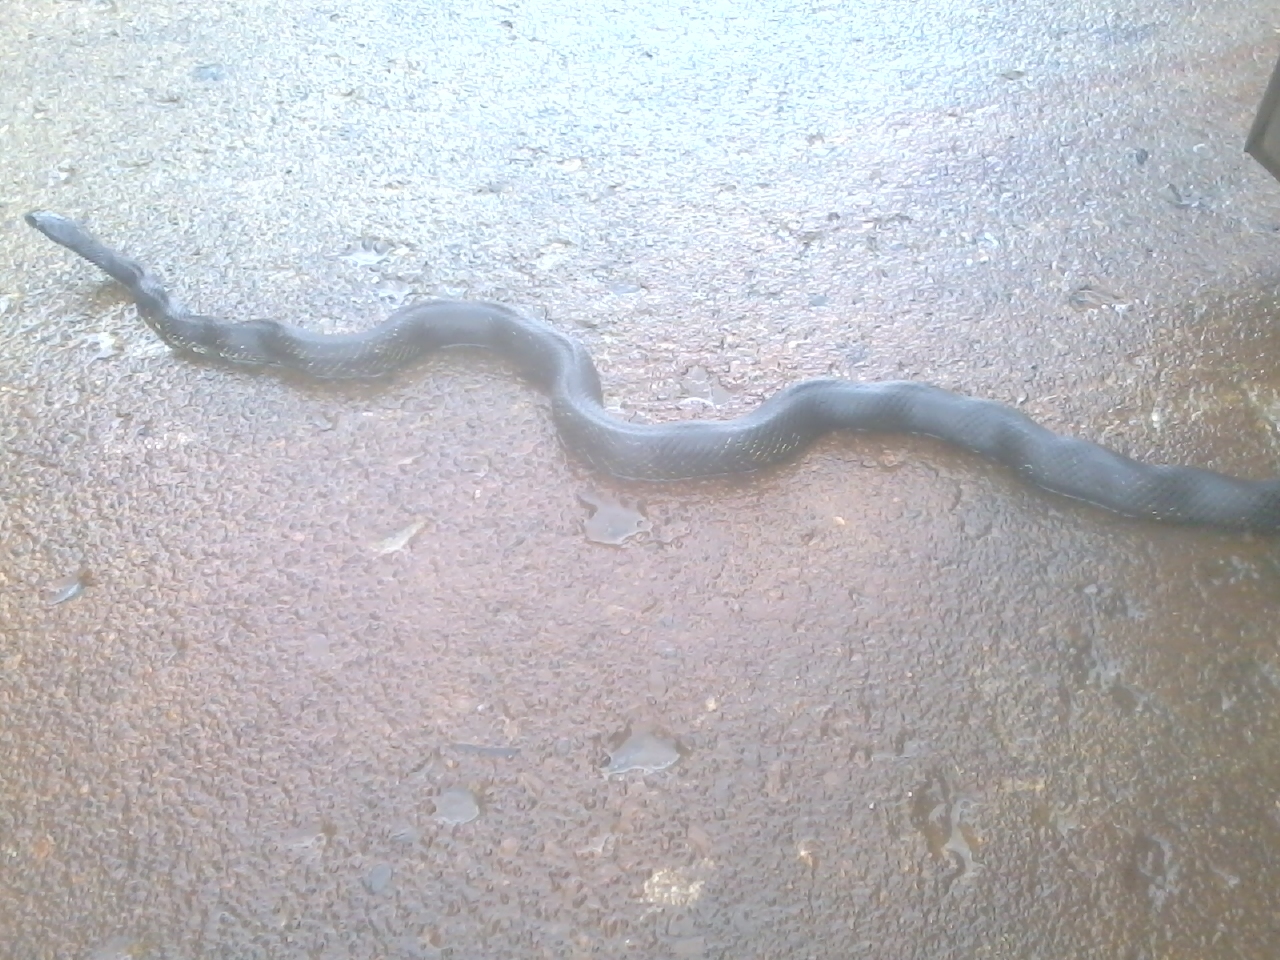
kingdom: Animalia
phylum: Chordata
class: Squamata
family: Colubridae
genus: Pantherophis
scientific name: Pantherophis spiloides
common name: Gray rat snake
